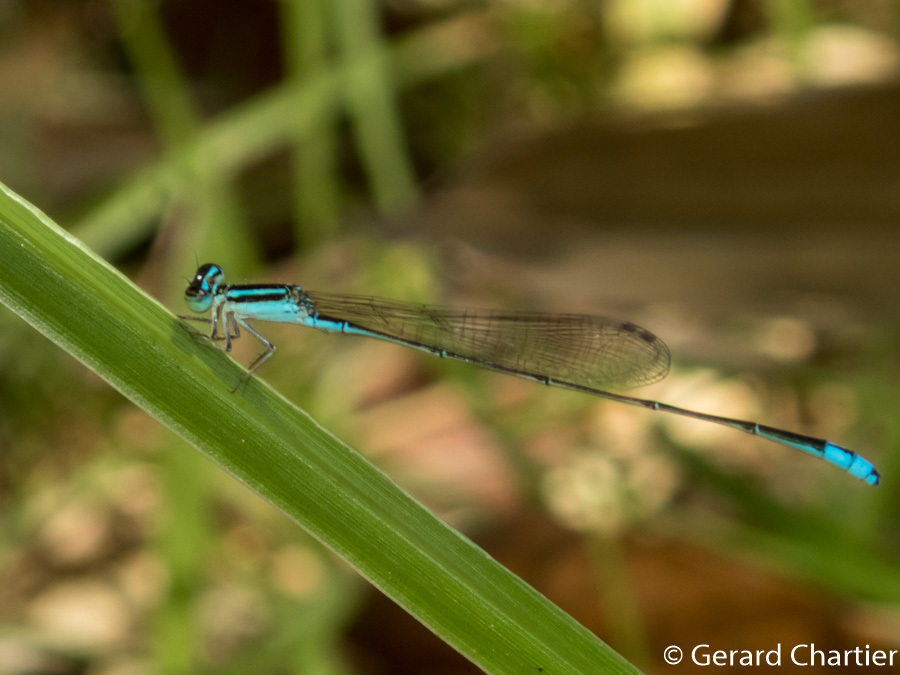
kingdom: Animalia
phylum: Arthropoda
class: Insecta
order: Odonata
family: Coenagrionidae
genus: Aciagrion
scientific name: Aciagrion borneense
